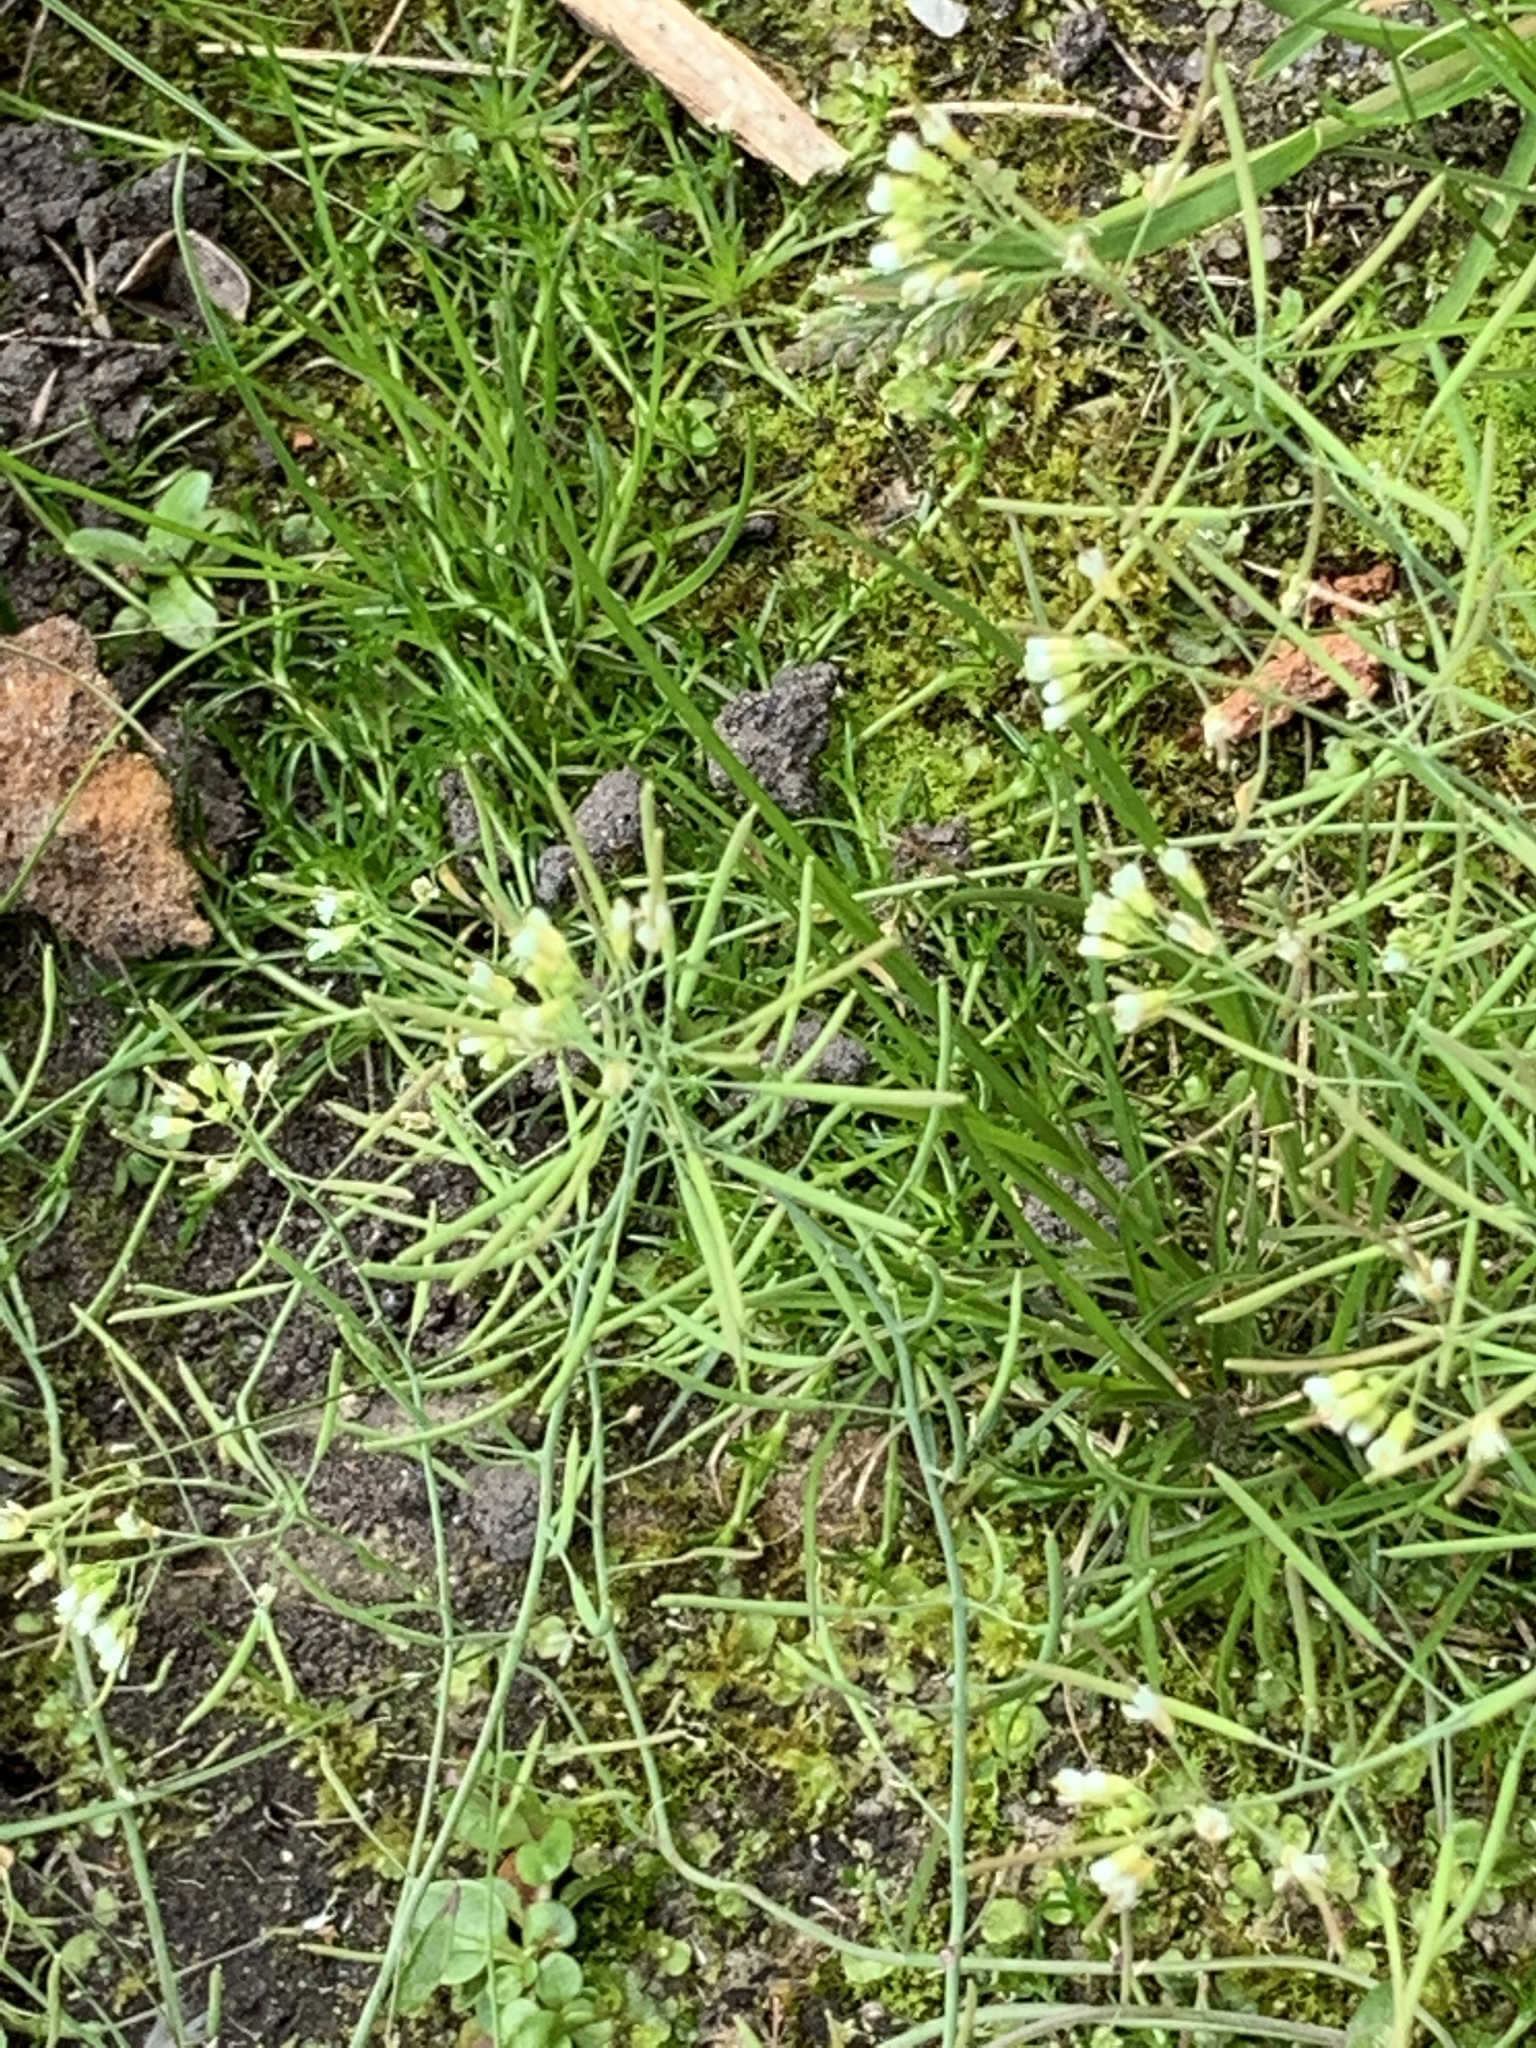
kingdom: Plantae
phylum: Tracheophyta
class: Magnoliopsida
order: Brassicales
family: Brassicaceae
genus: Arabidopsis
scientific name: Arabidopsis thaliana
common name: Thale cress
